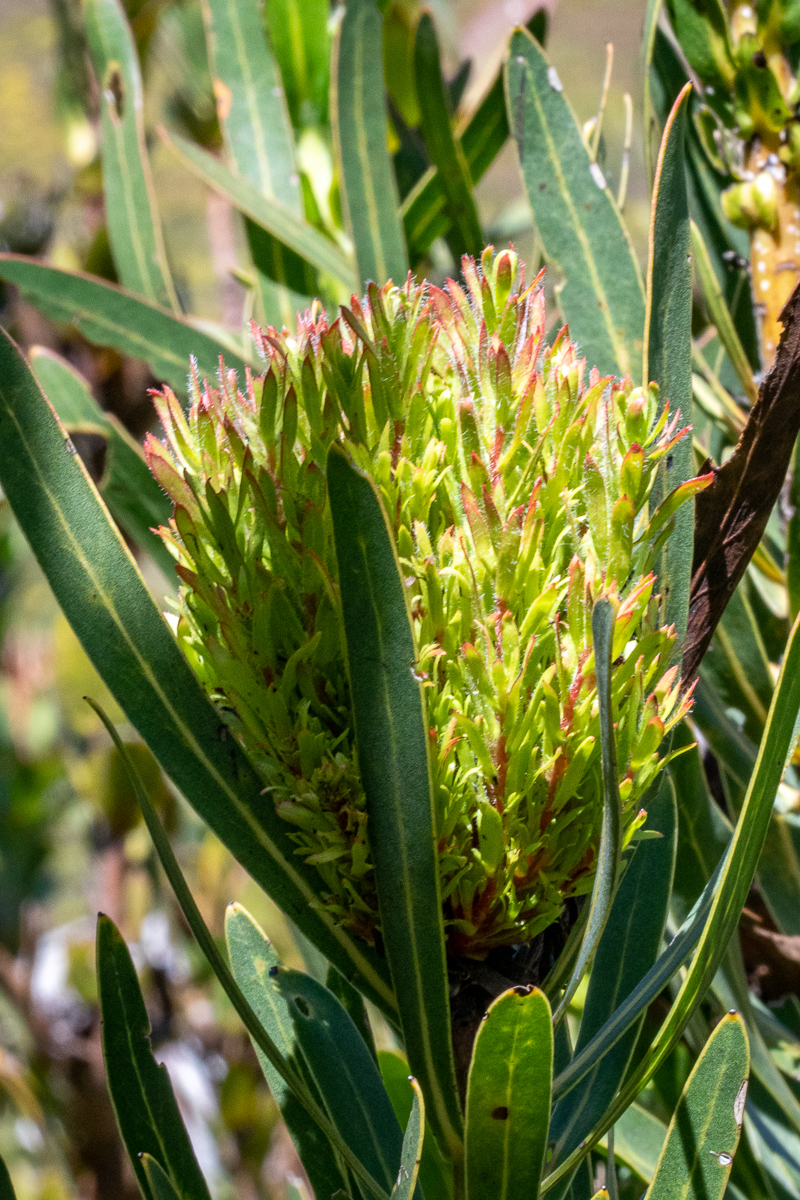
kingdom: Bacteria
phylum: Firmicutes
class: Bacilli
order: Acholeplasmatales
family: Acholeplasmataceae
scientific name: Acholeplasmataceae
